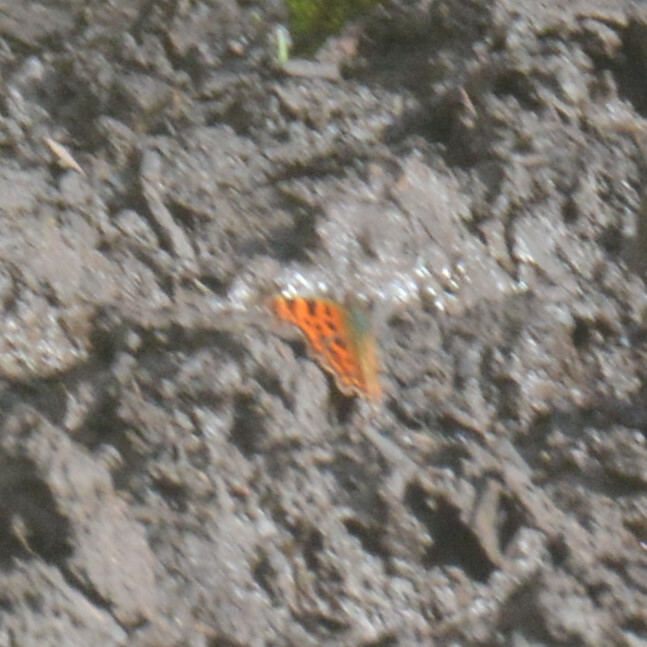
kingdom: Animalia
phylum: Arthropoda
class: Insecta
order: Lepidoptera
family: Nymphalidae
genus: Polygonia
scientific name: Polygonia c-album
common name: Comma
